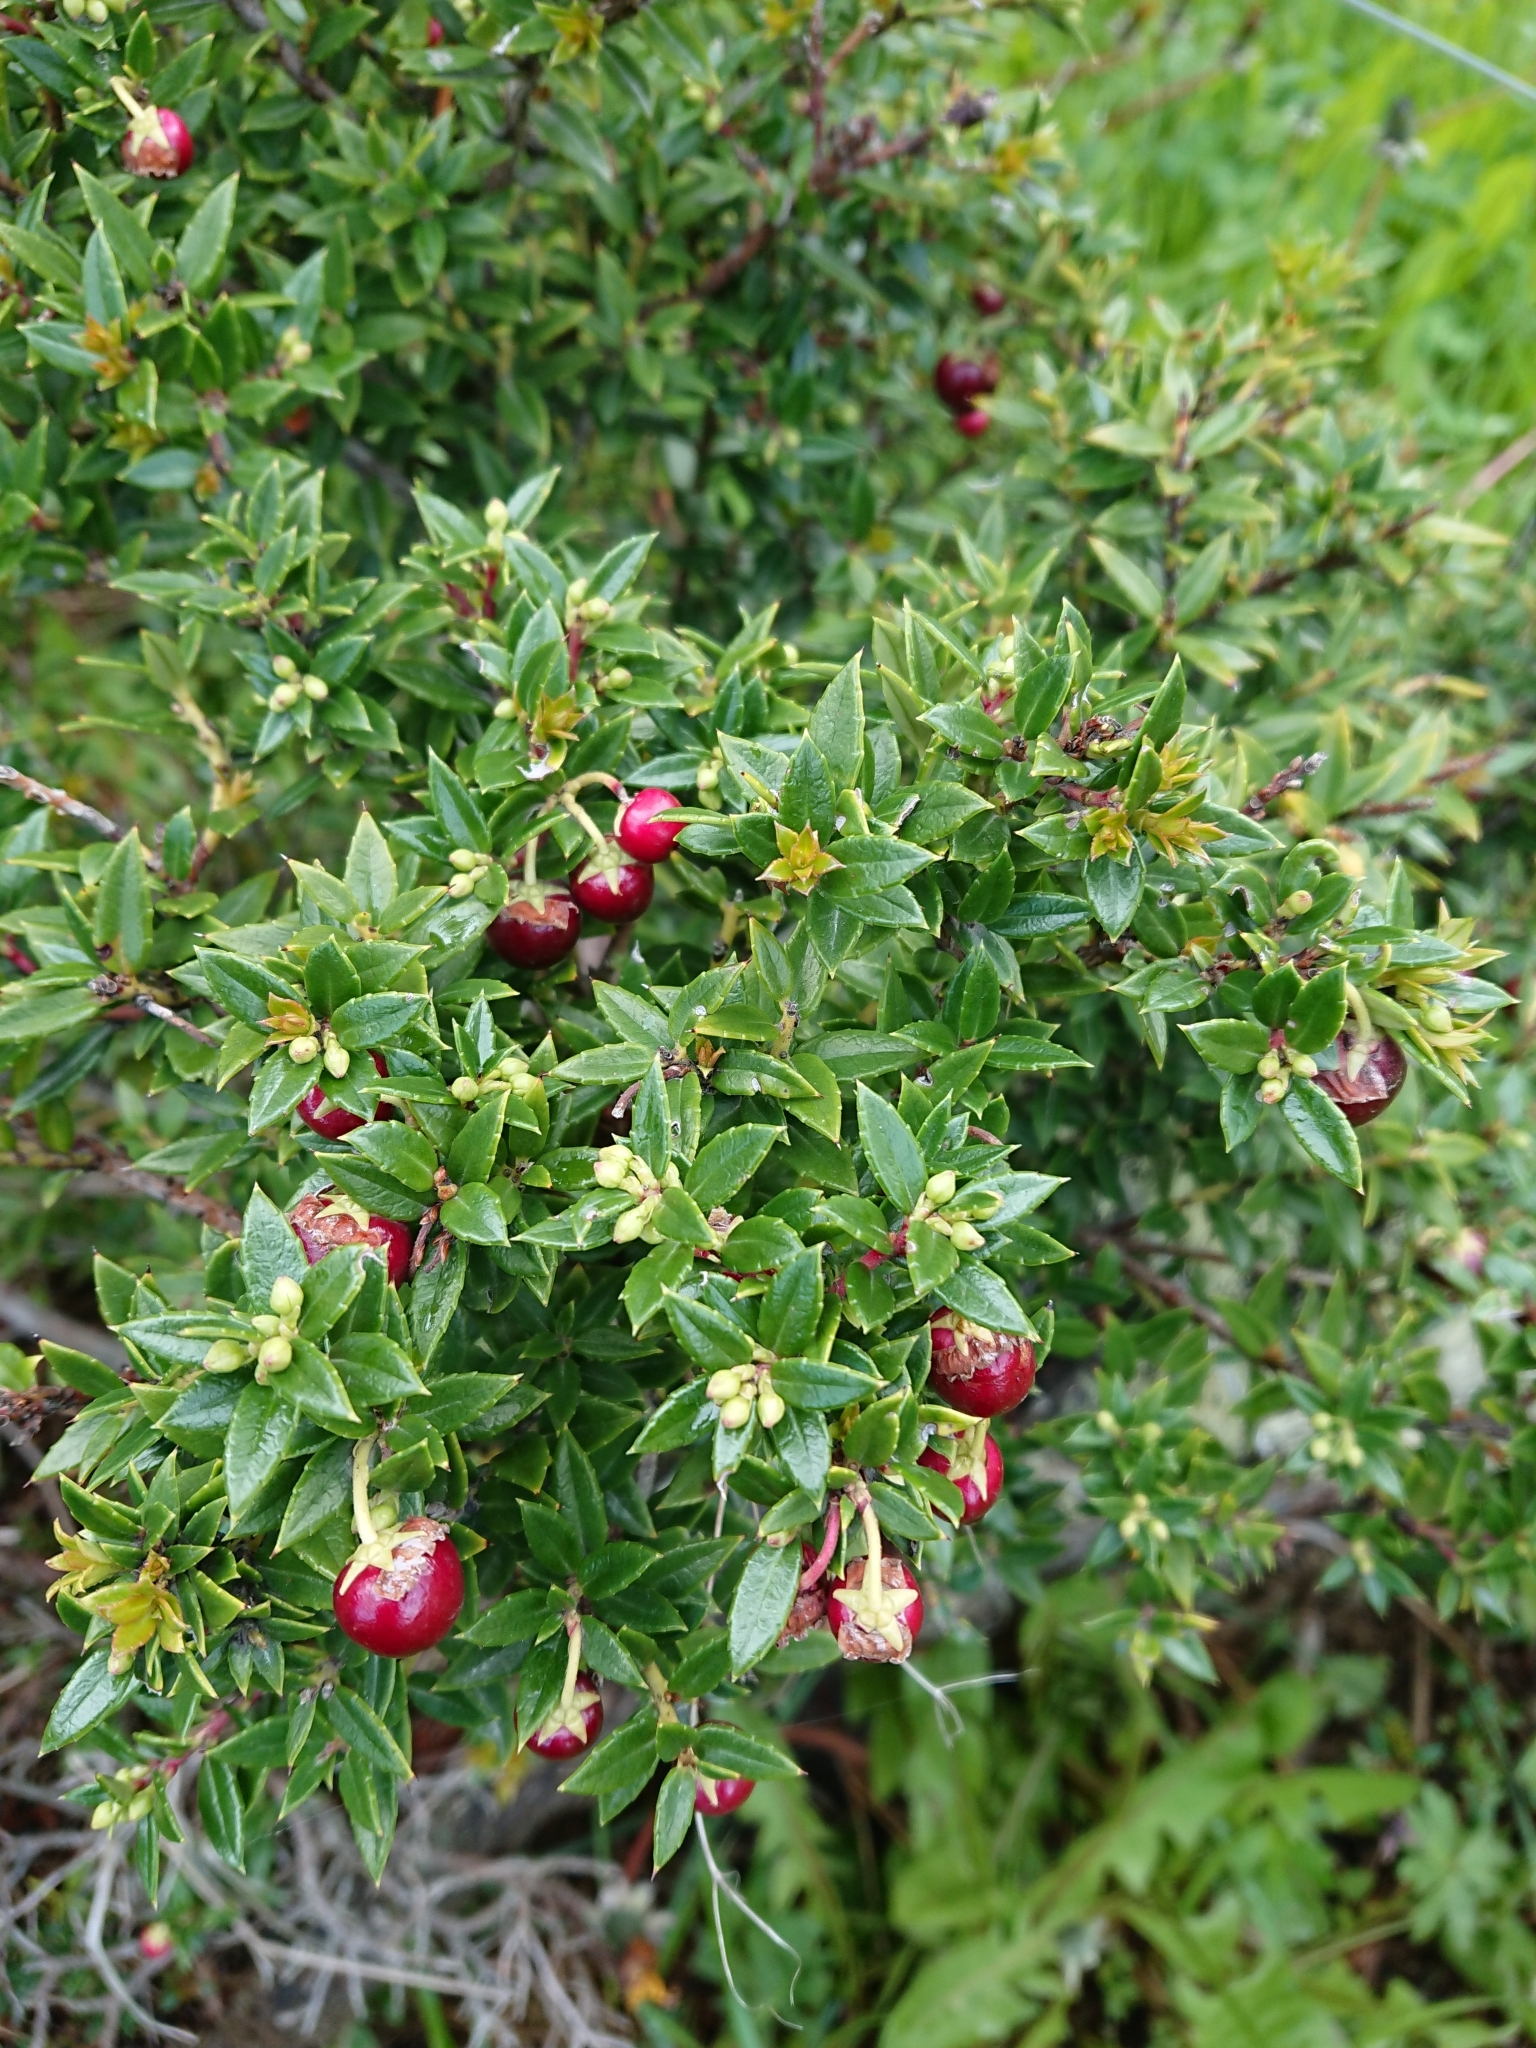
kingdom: Plantae
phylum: Tracheophyta
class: Magnoliopsida
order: Ericales
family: Ericaceae
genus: Gaultheria
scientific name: Gaultheria mucronata
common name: Prickly heath
